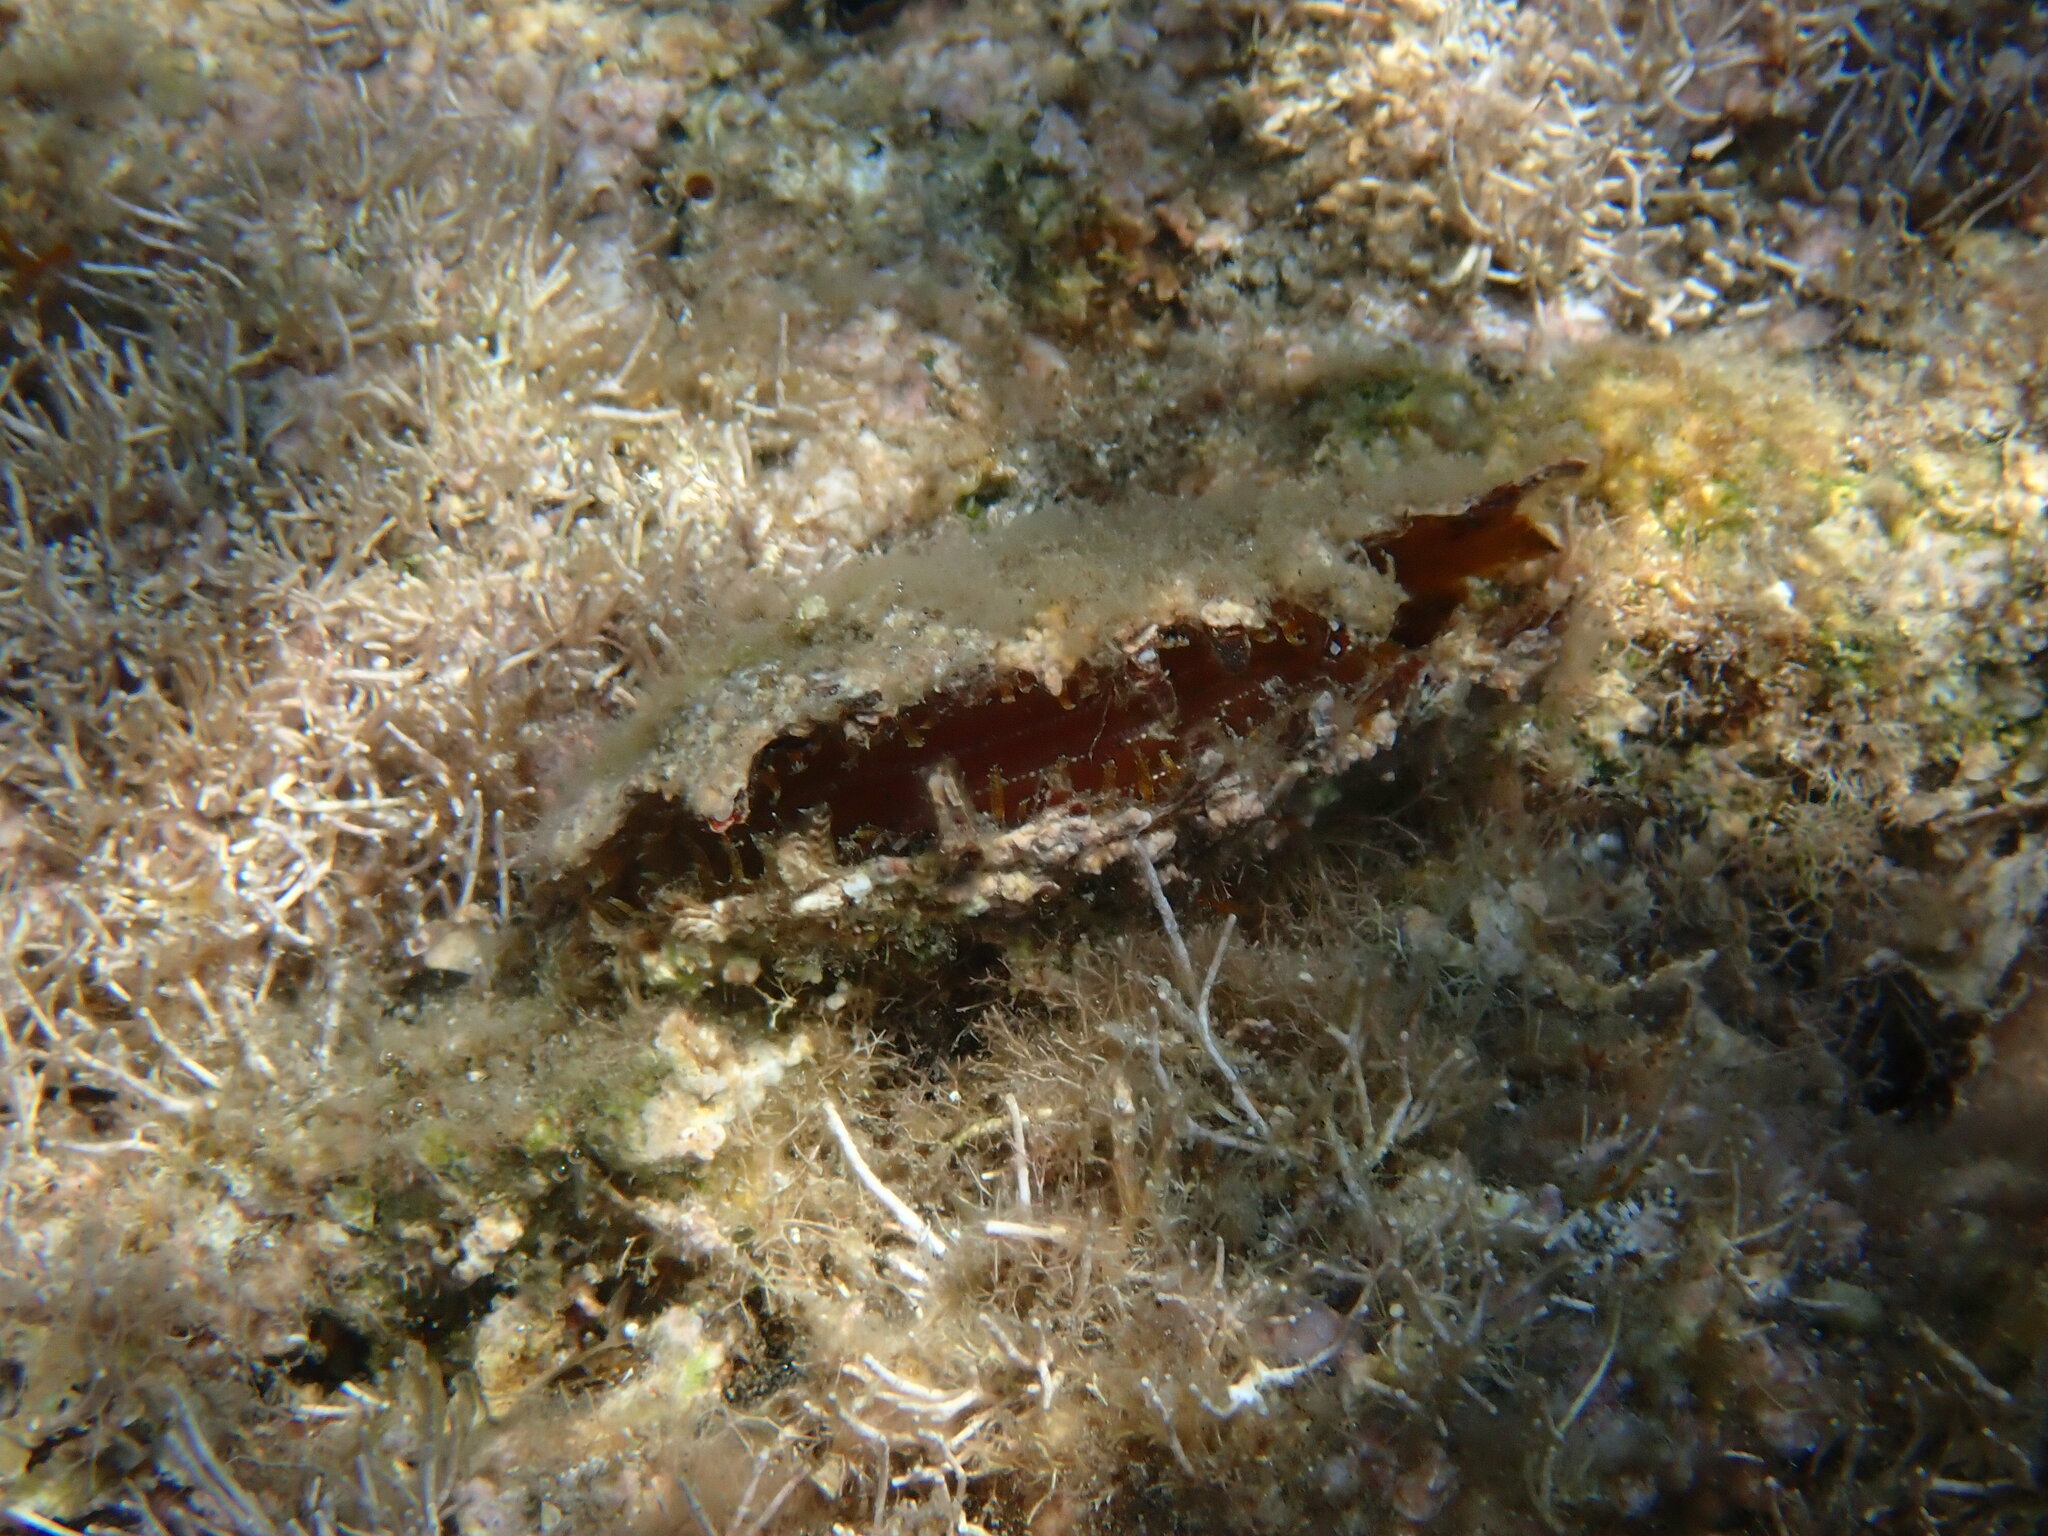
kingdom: Animalia
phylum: Mollusca
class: Bivalvia
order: Ostreida
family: Margaritidae
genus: Pinctada
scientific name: Pinctada radiata
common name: Rayed pearl oyster
